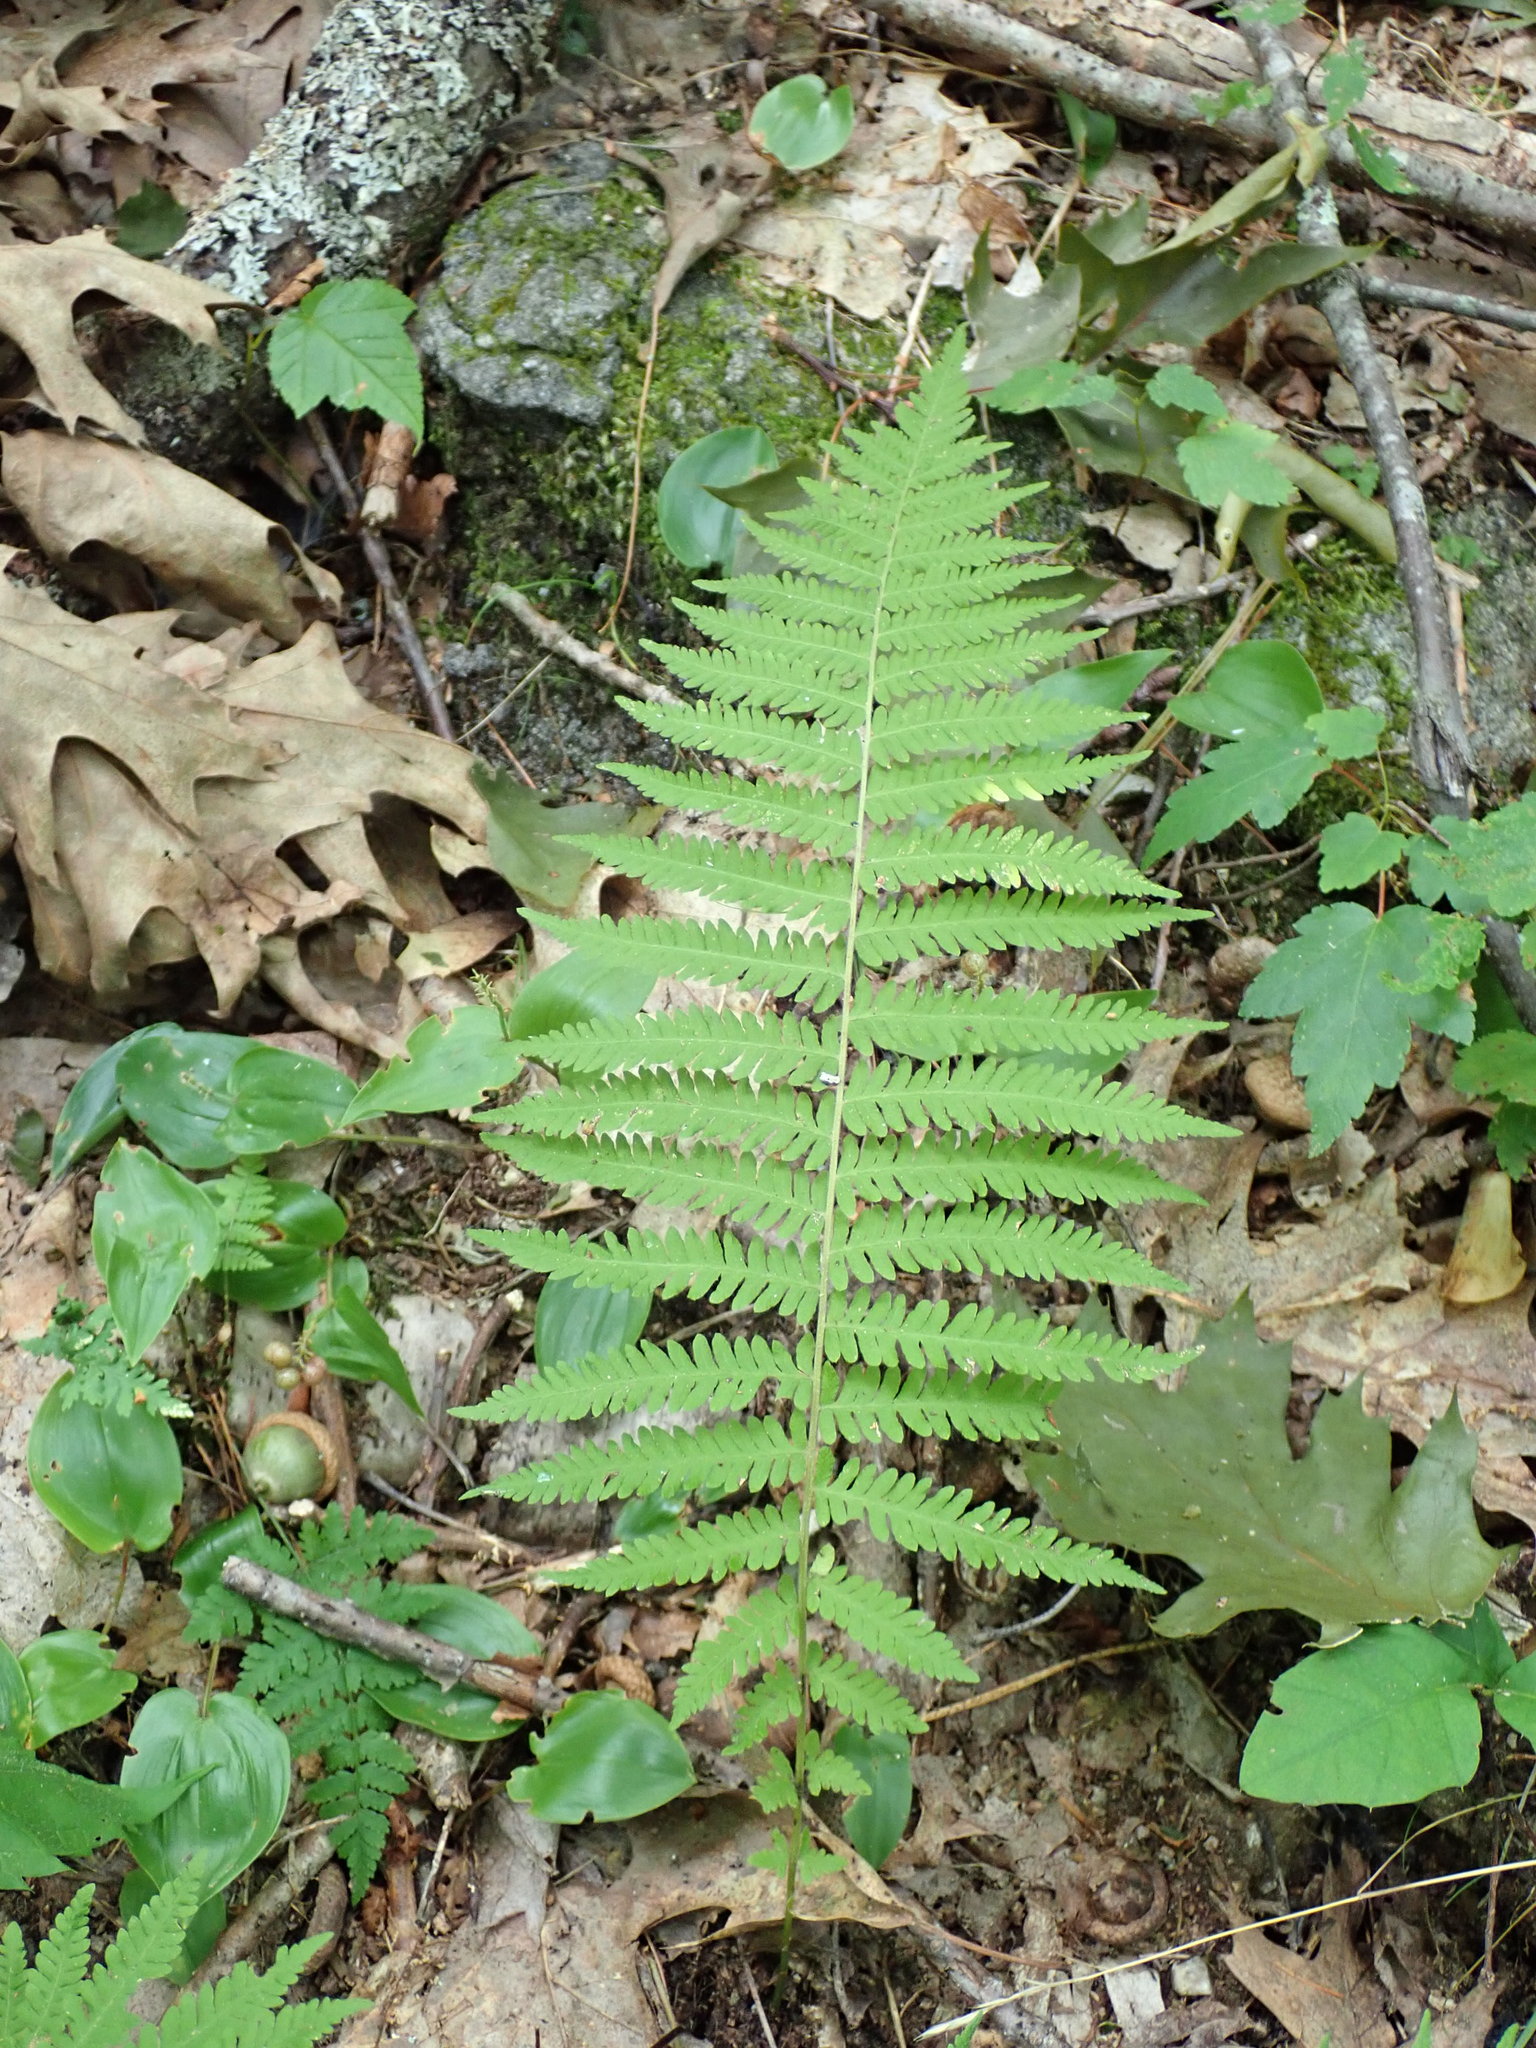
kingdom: Plantae
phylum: Tracheophyta
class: Polypodiopsida
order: Polypodiales
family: Thelypteridaceae
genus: Amauropelta
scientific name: Amauropelta noveboracensis
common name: New york fern
